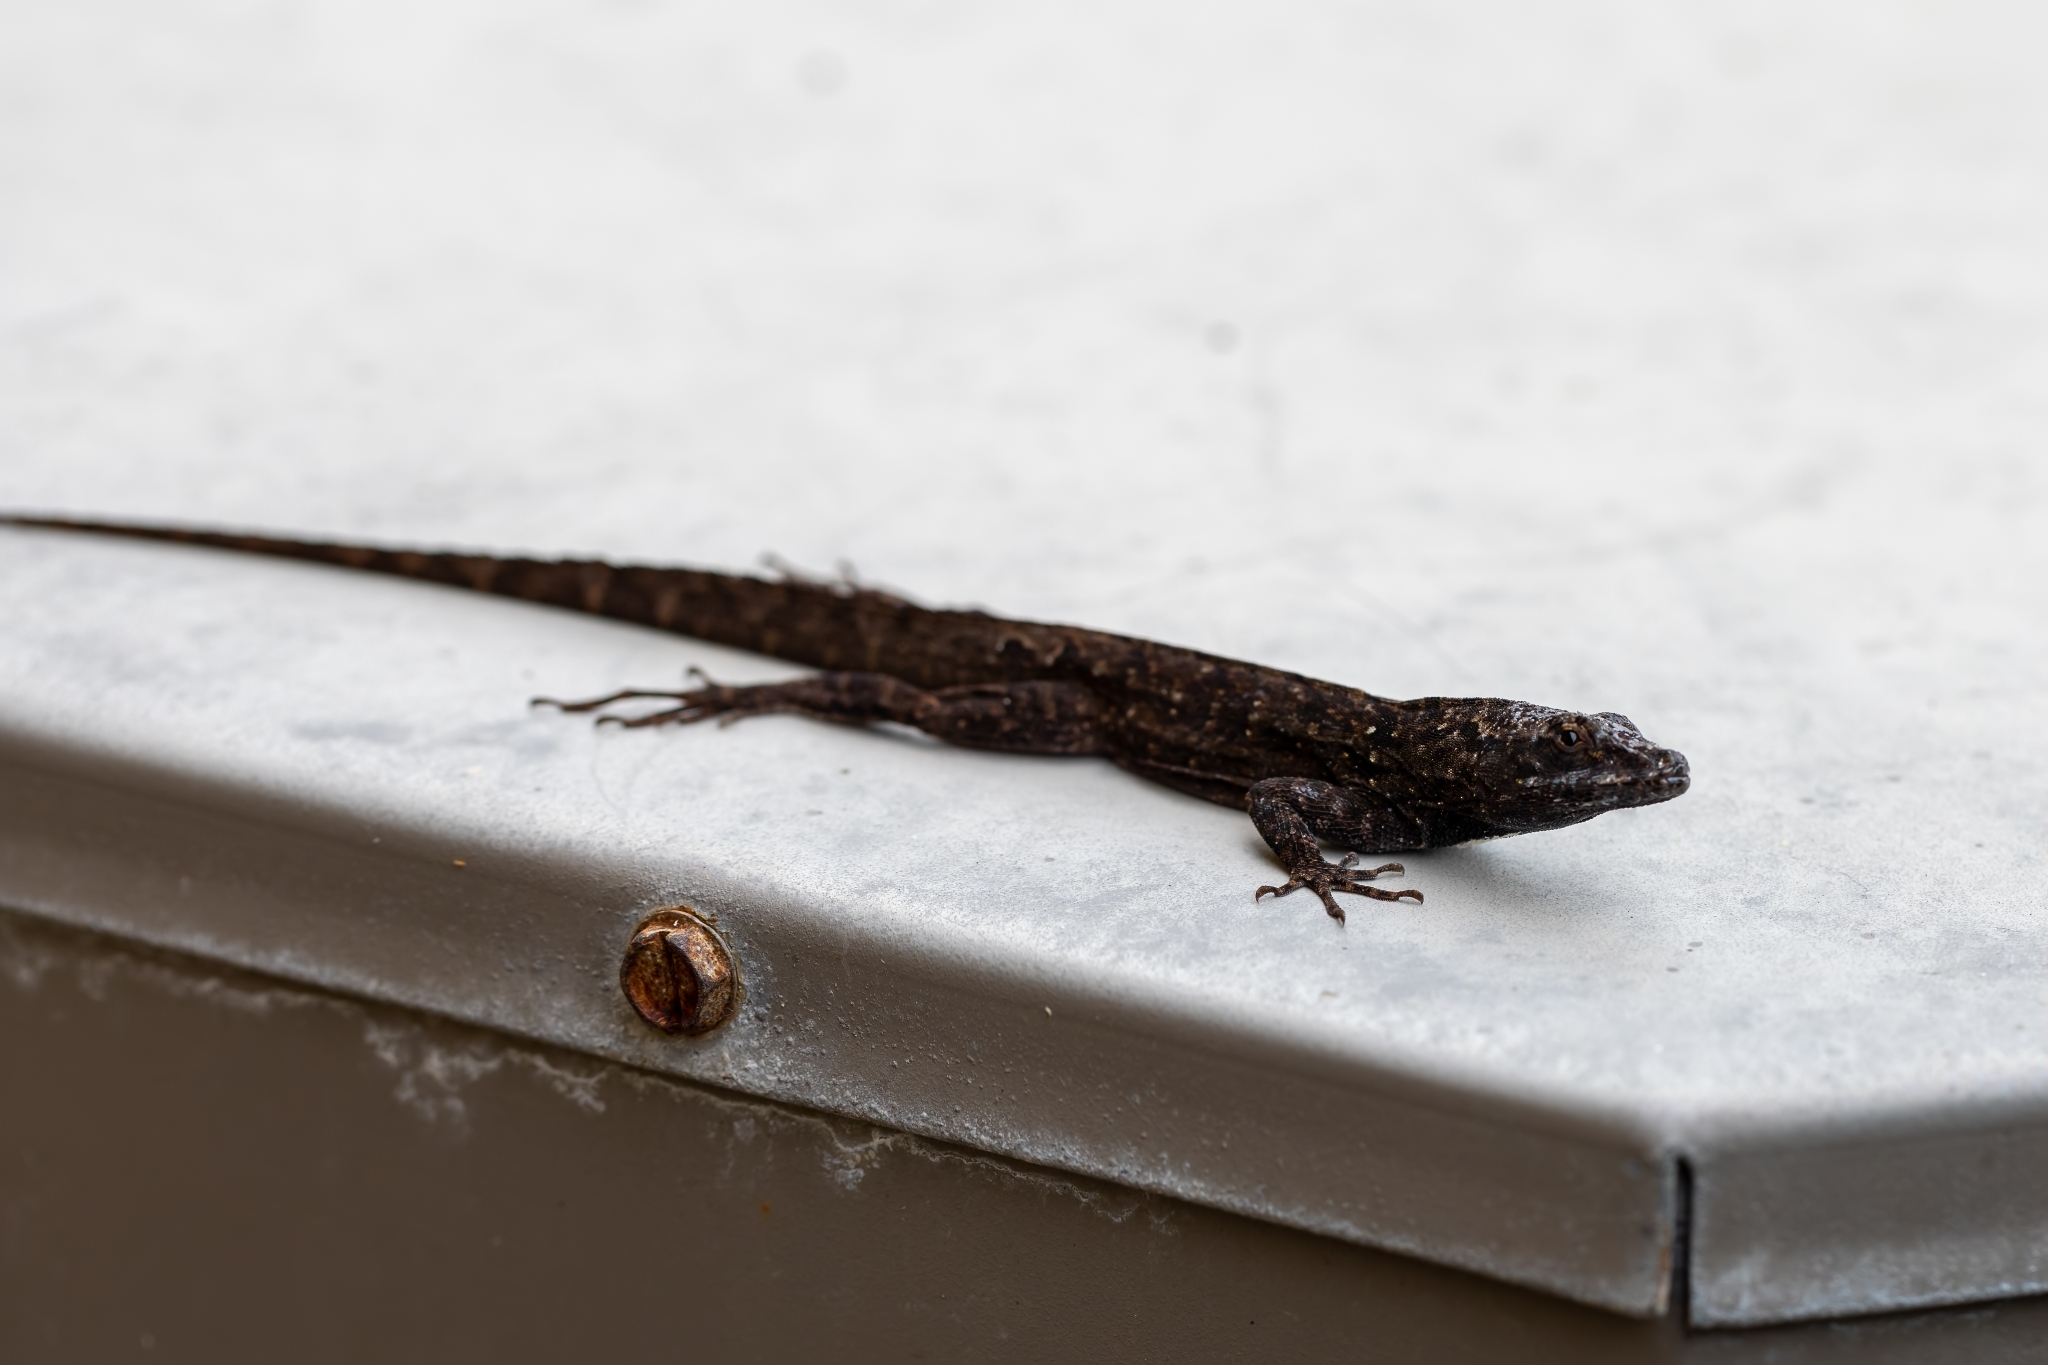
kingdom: Animalia
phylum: Chordata
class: Squamata
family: Dactyloidae
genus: Anolis
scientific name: Anolis sagrei
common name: Brown anole
